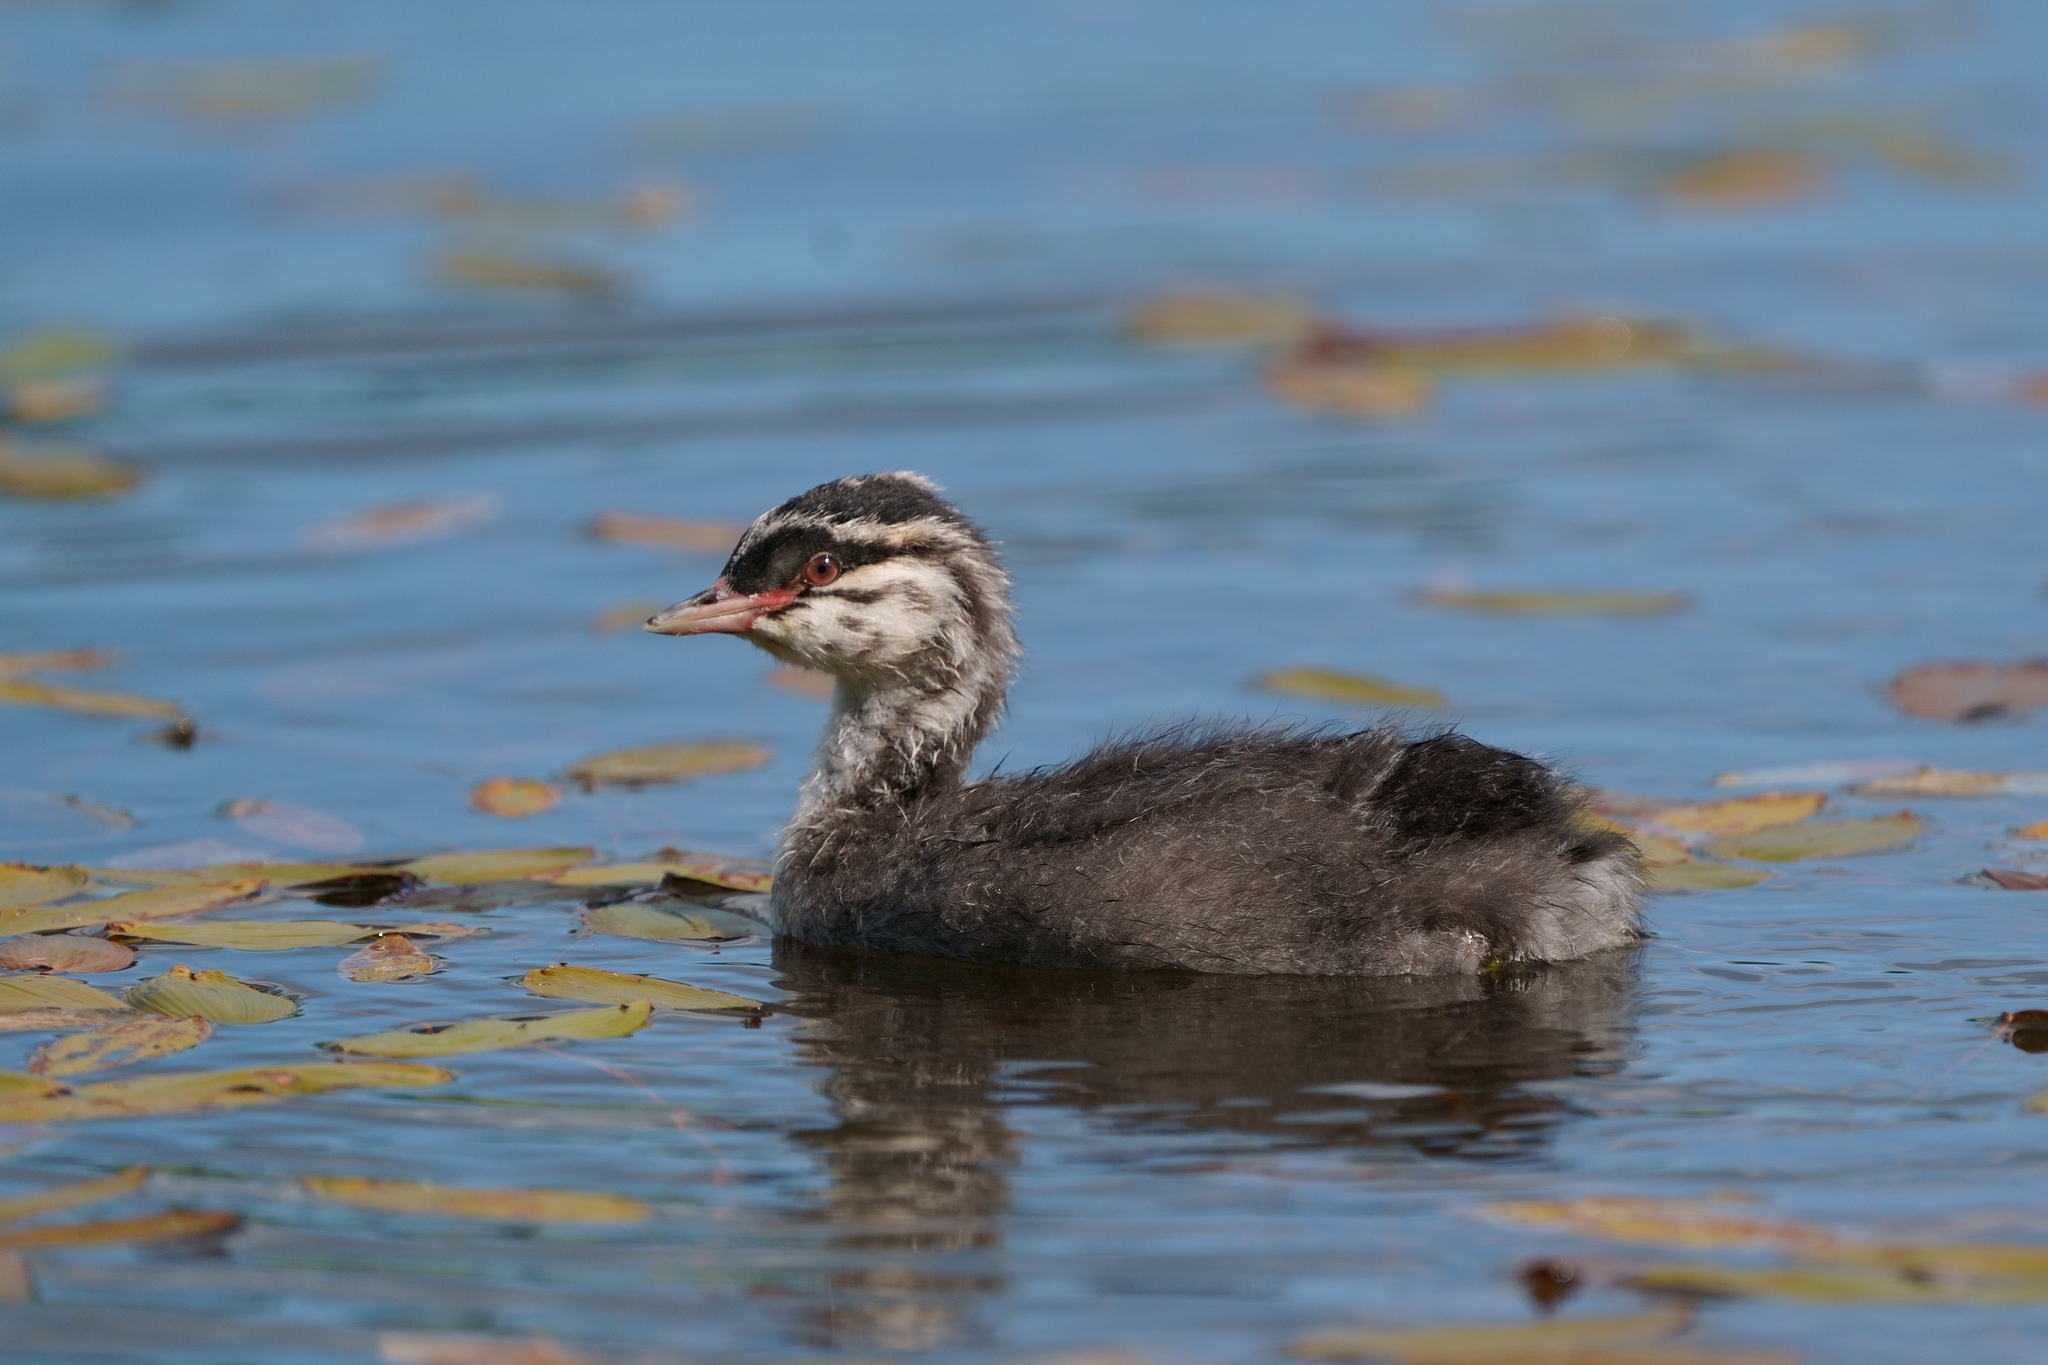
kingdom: Animalia
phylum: Chordata
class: Aves
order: Podicipediformes
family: Podicipedidae
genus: Podiceps
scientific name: Podiceps auritus
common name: Horned grebe
